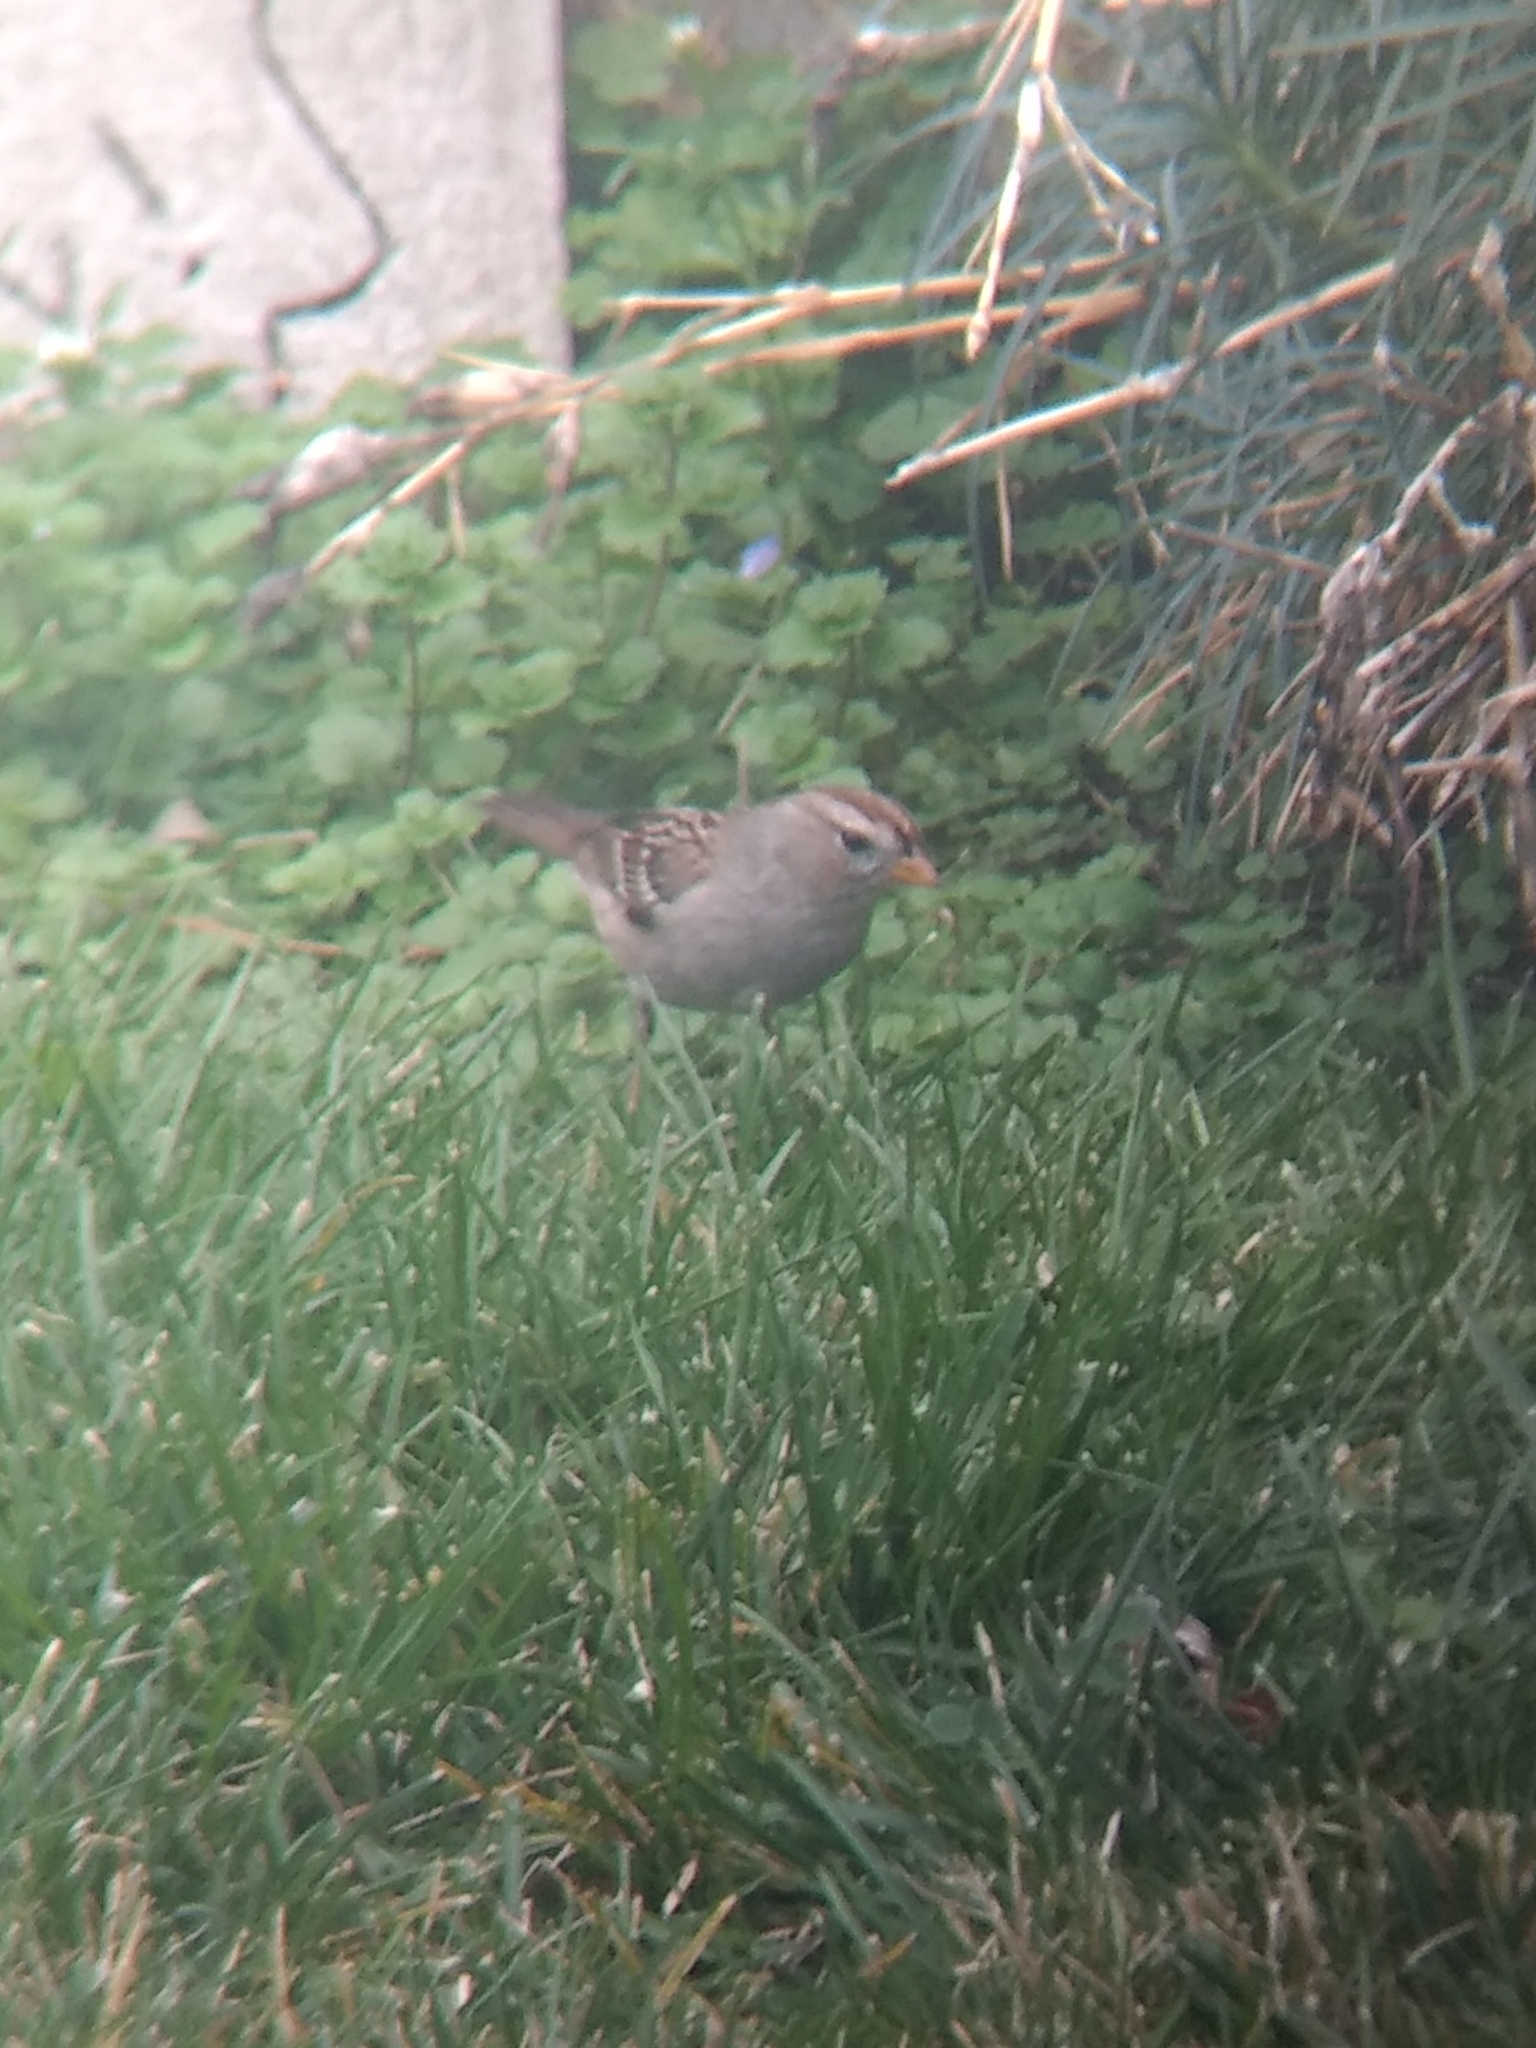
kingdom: Animalia
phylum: Chordata
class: Aves
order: Passeriformes
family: Passerellidae
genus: Zonotrichia
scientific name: Zonotrichia leucophrys
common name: White-crowned sparrow
